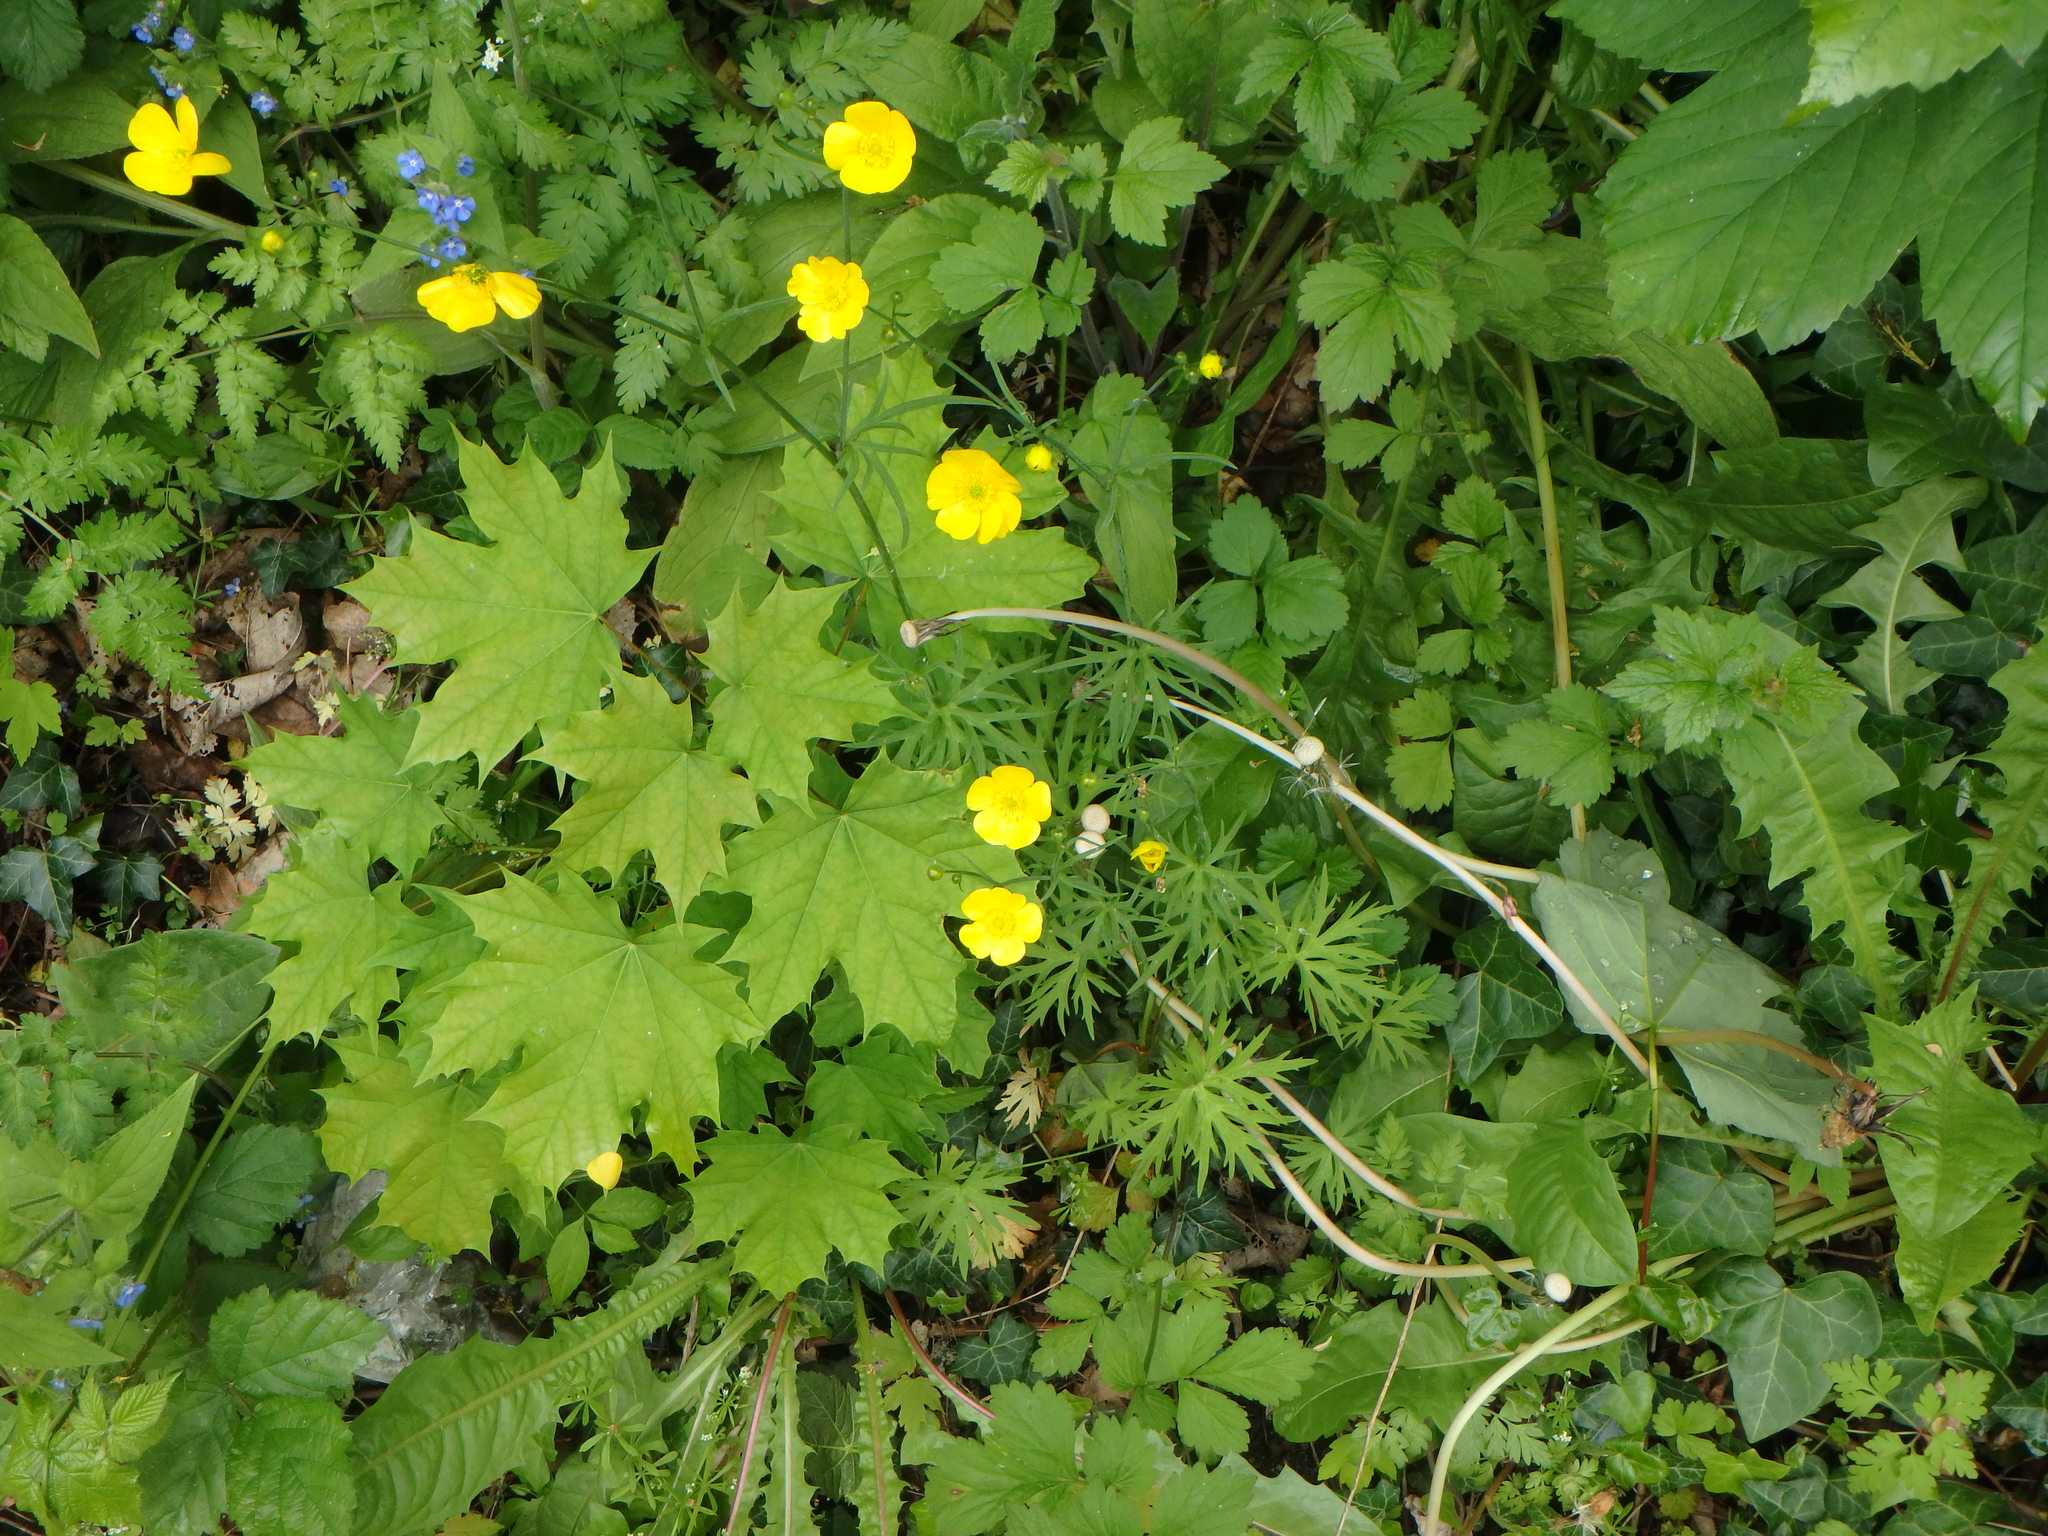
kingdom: Plantae
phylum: Tracheophyta
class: Magnoliopsida
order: Ranunculales
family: Ranunculaceae
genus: Ranunculus
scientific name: Ranunculus acris
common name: Meadow buttercup
